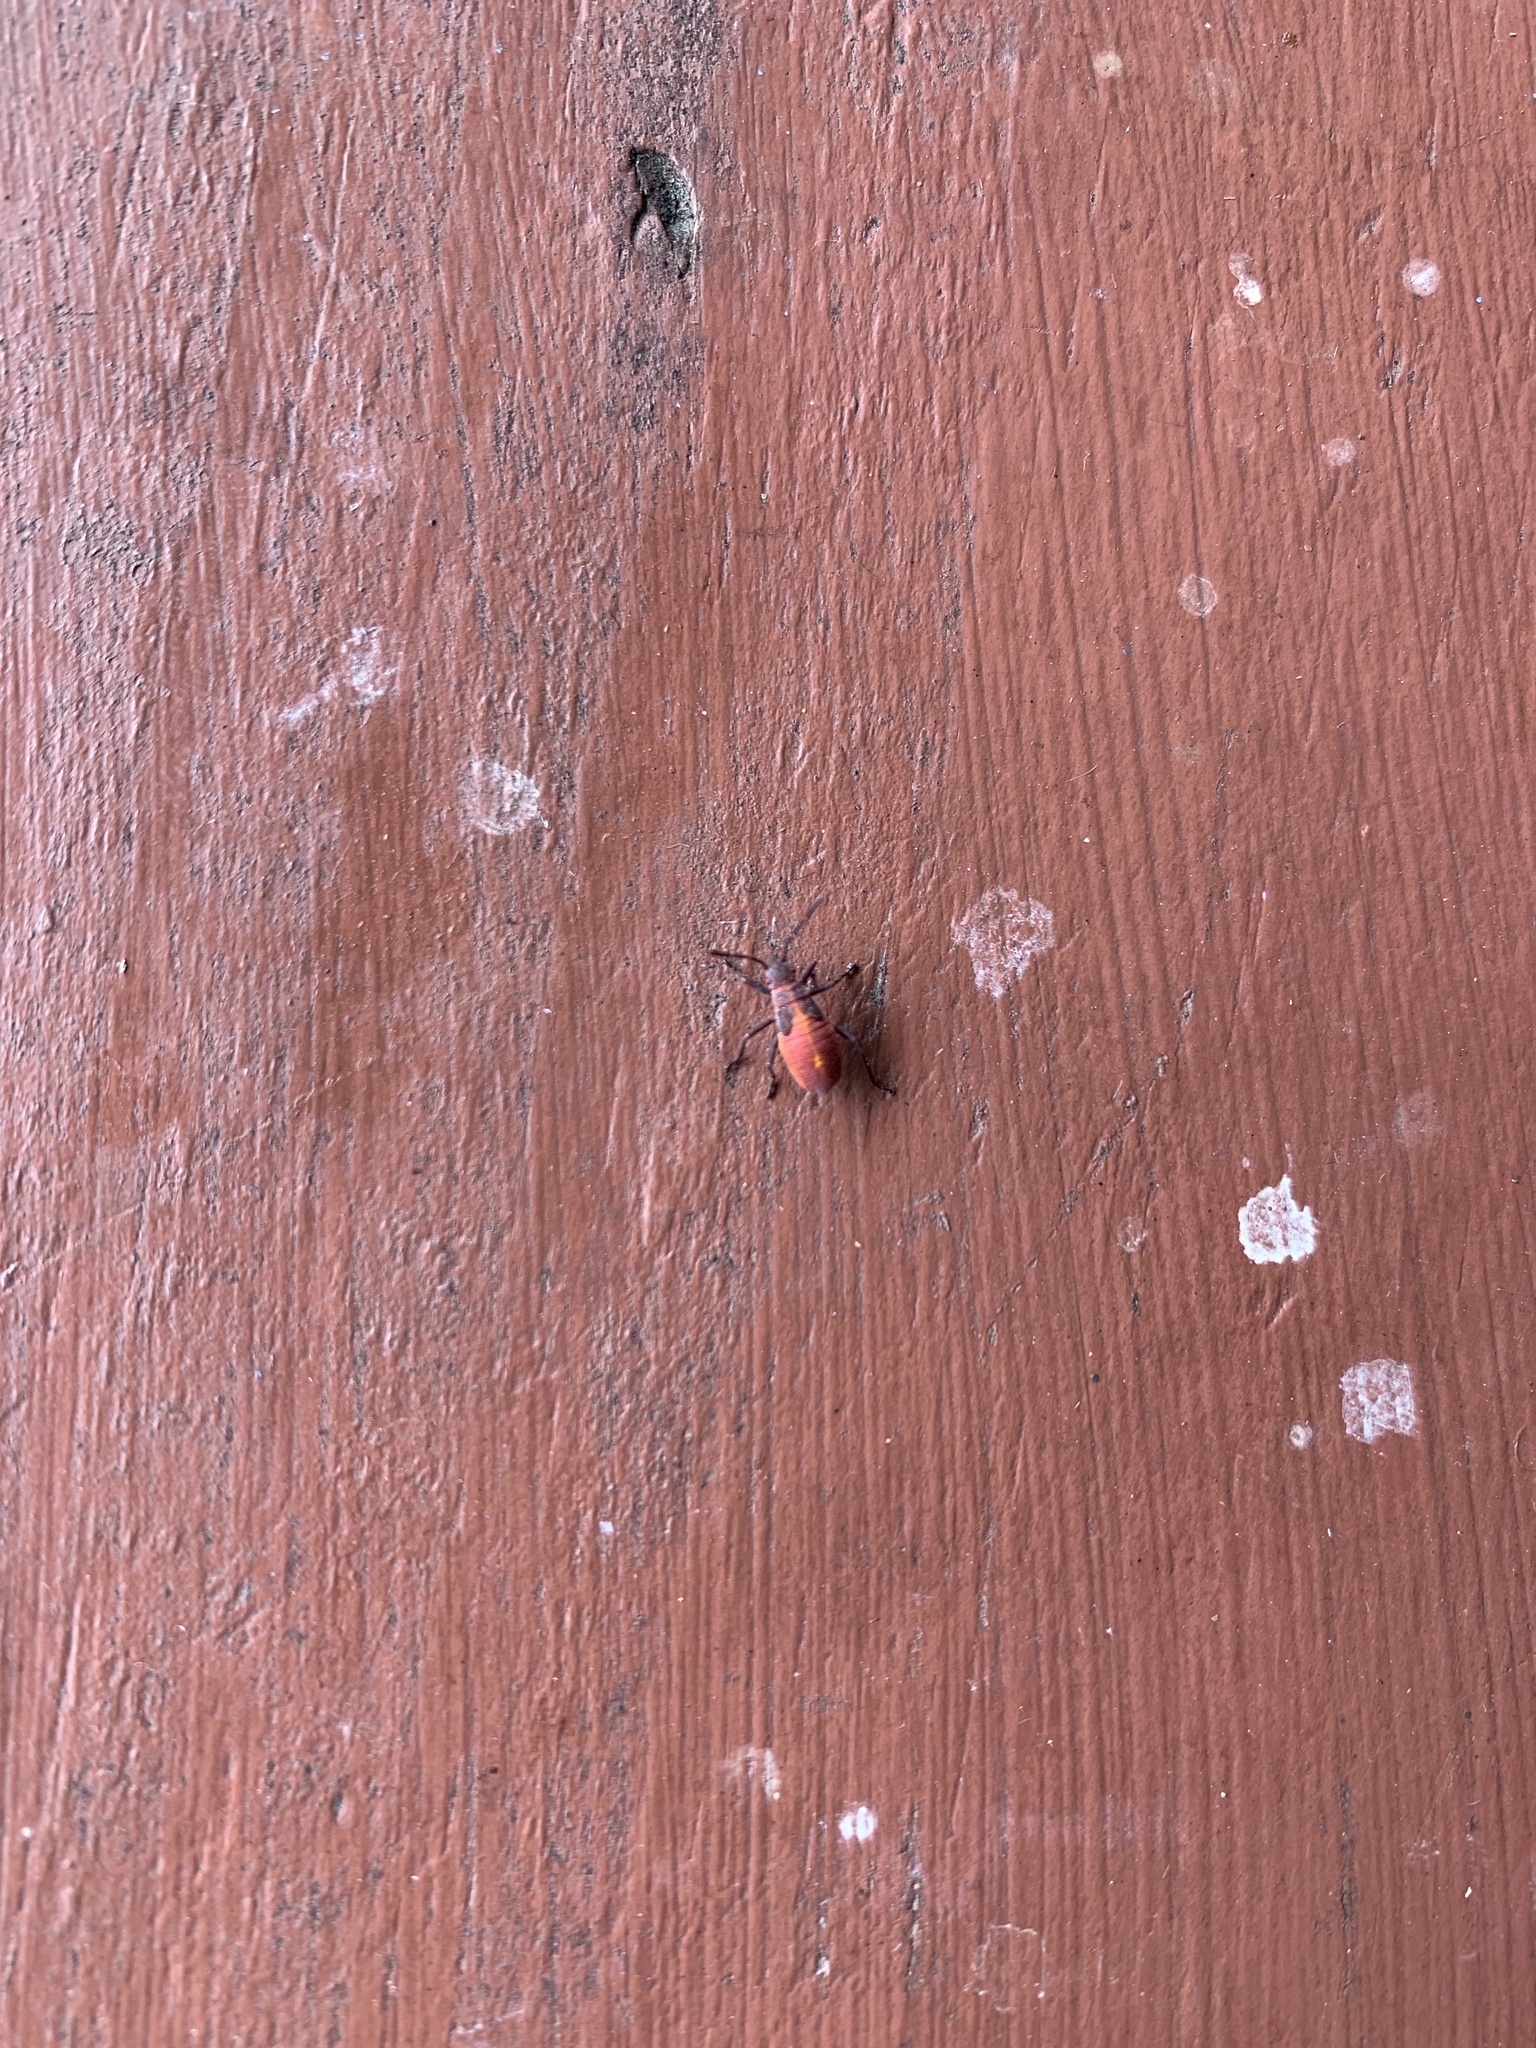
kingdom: Animalia
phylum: Arthropoda
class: Insecta
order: Hemiptera
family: Rhopalidae
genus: Boisea
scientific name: Boisea trivittata
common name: Boxelder bug
